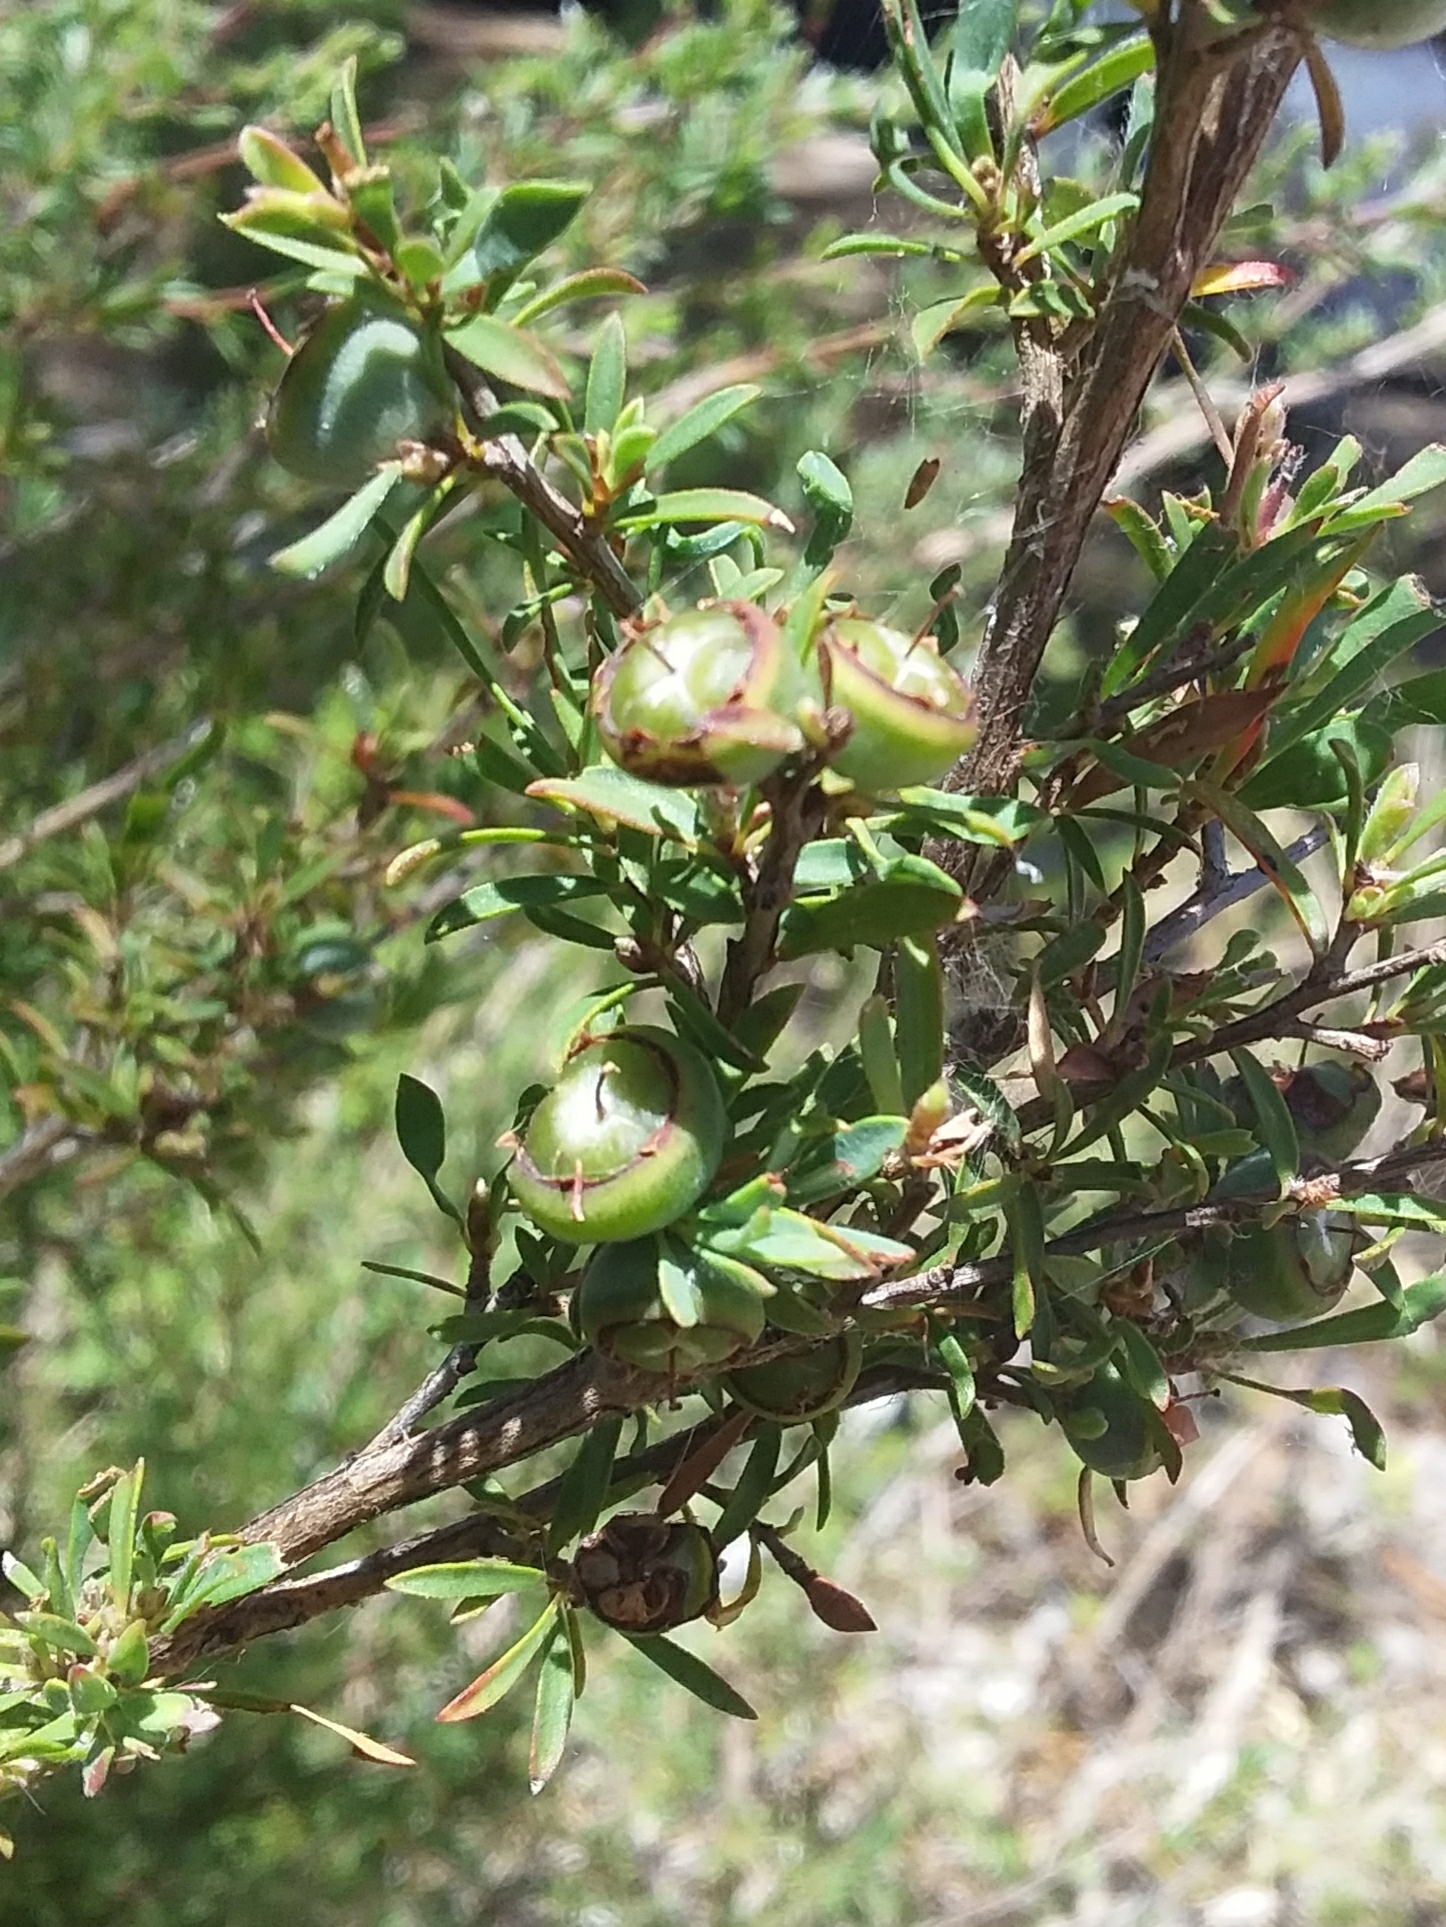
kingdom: Plantae
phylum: Tracheophyta
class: Magnoliopsida
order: Myrtales
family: Myrtaceae
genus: Leptospermum
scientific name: Leptospermum myrsinoides
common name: Heath teatree
